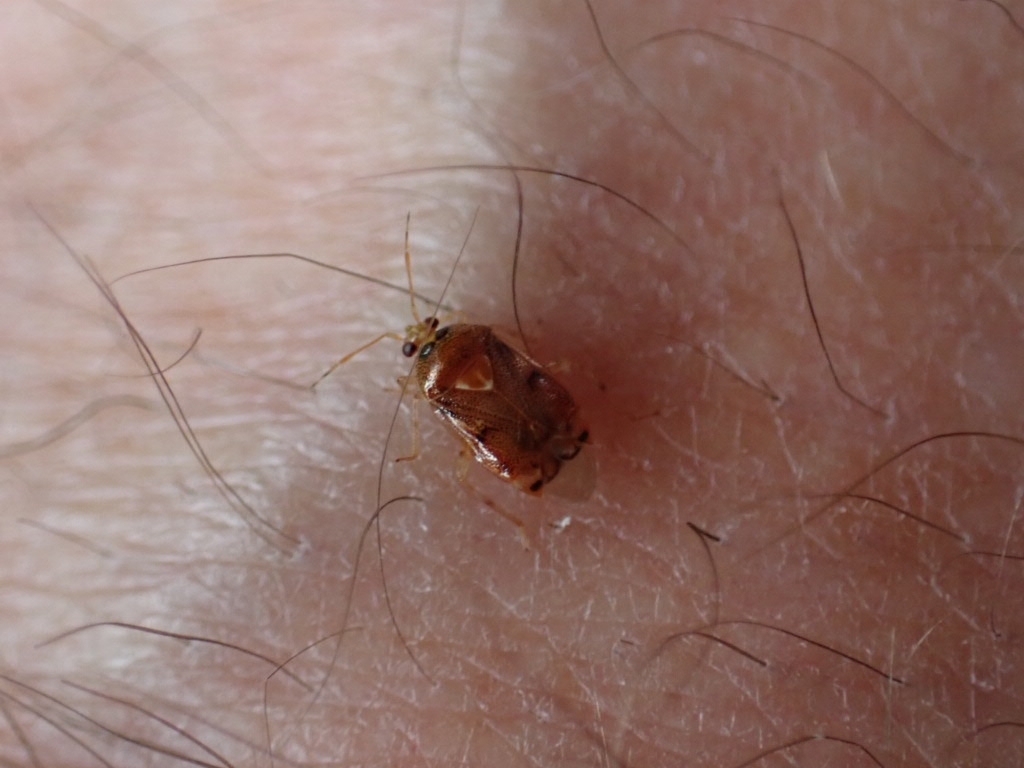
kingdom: Animalia
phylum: Arthropoda
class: Insecta
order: Hemiptera
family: Miridae
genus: Deraeocoris
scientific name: Deraeocoris lutescens
